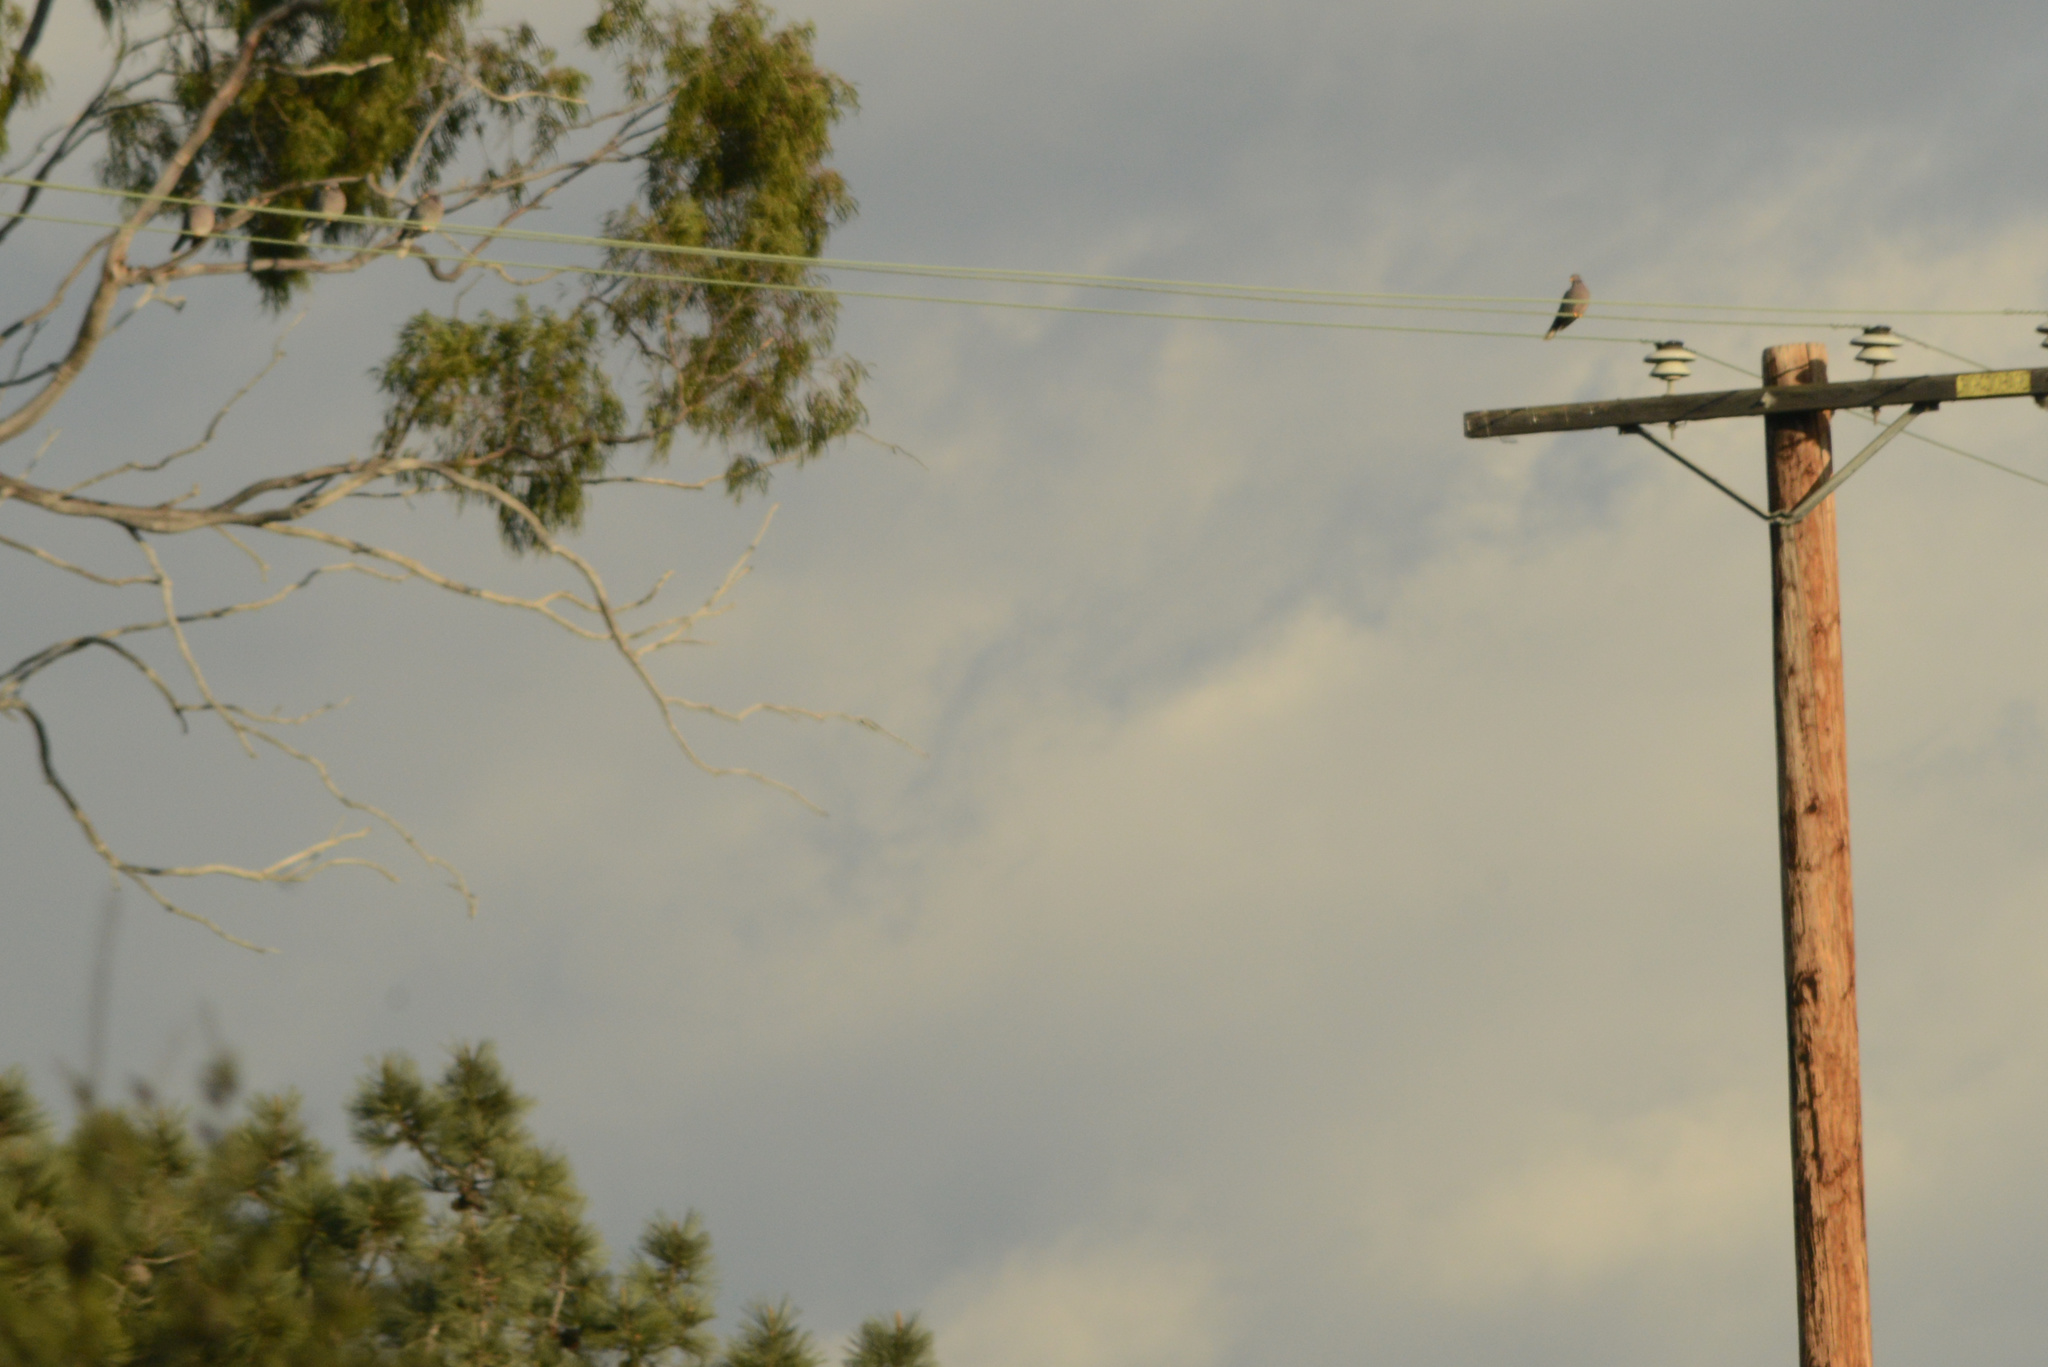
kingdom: Animalia
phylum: Chordata
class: Aves
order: Columbiformes
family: Columbidae
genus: Patagioenas
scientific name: Patagioenas fasciata
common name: Band-tailed pigeon
